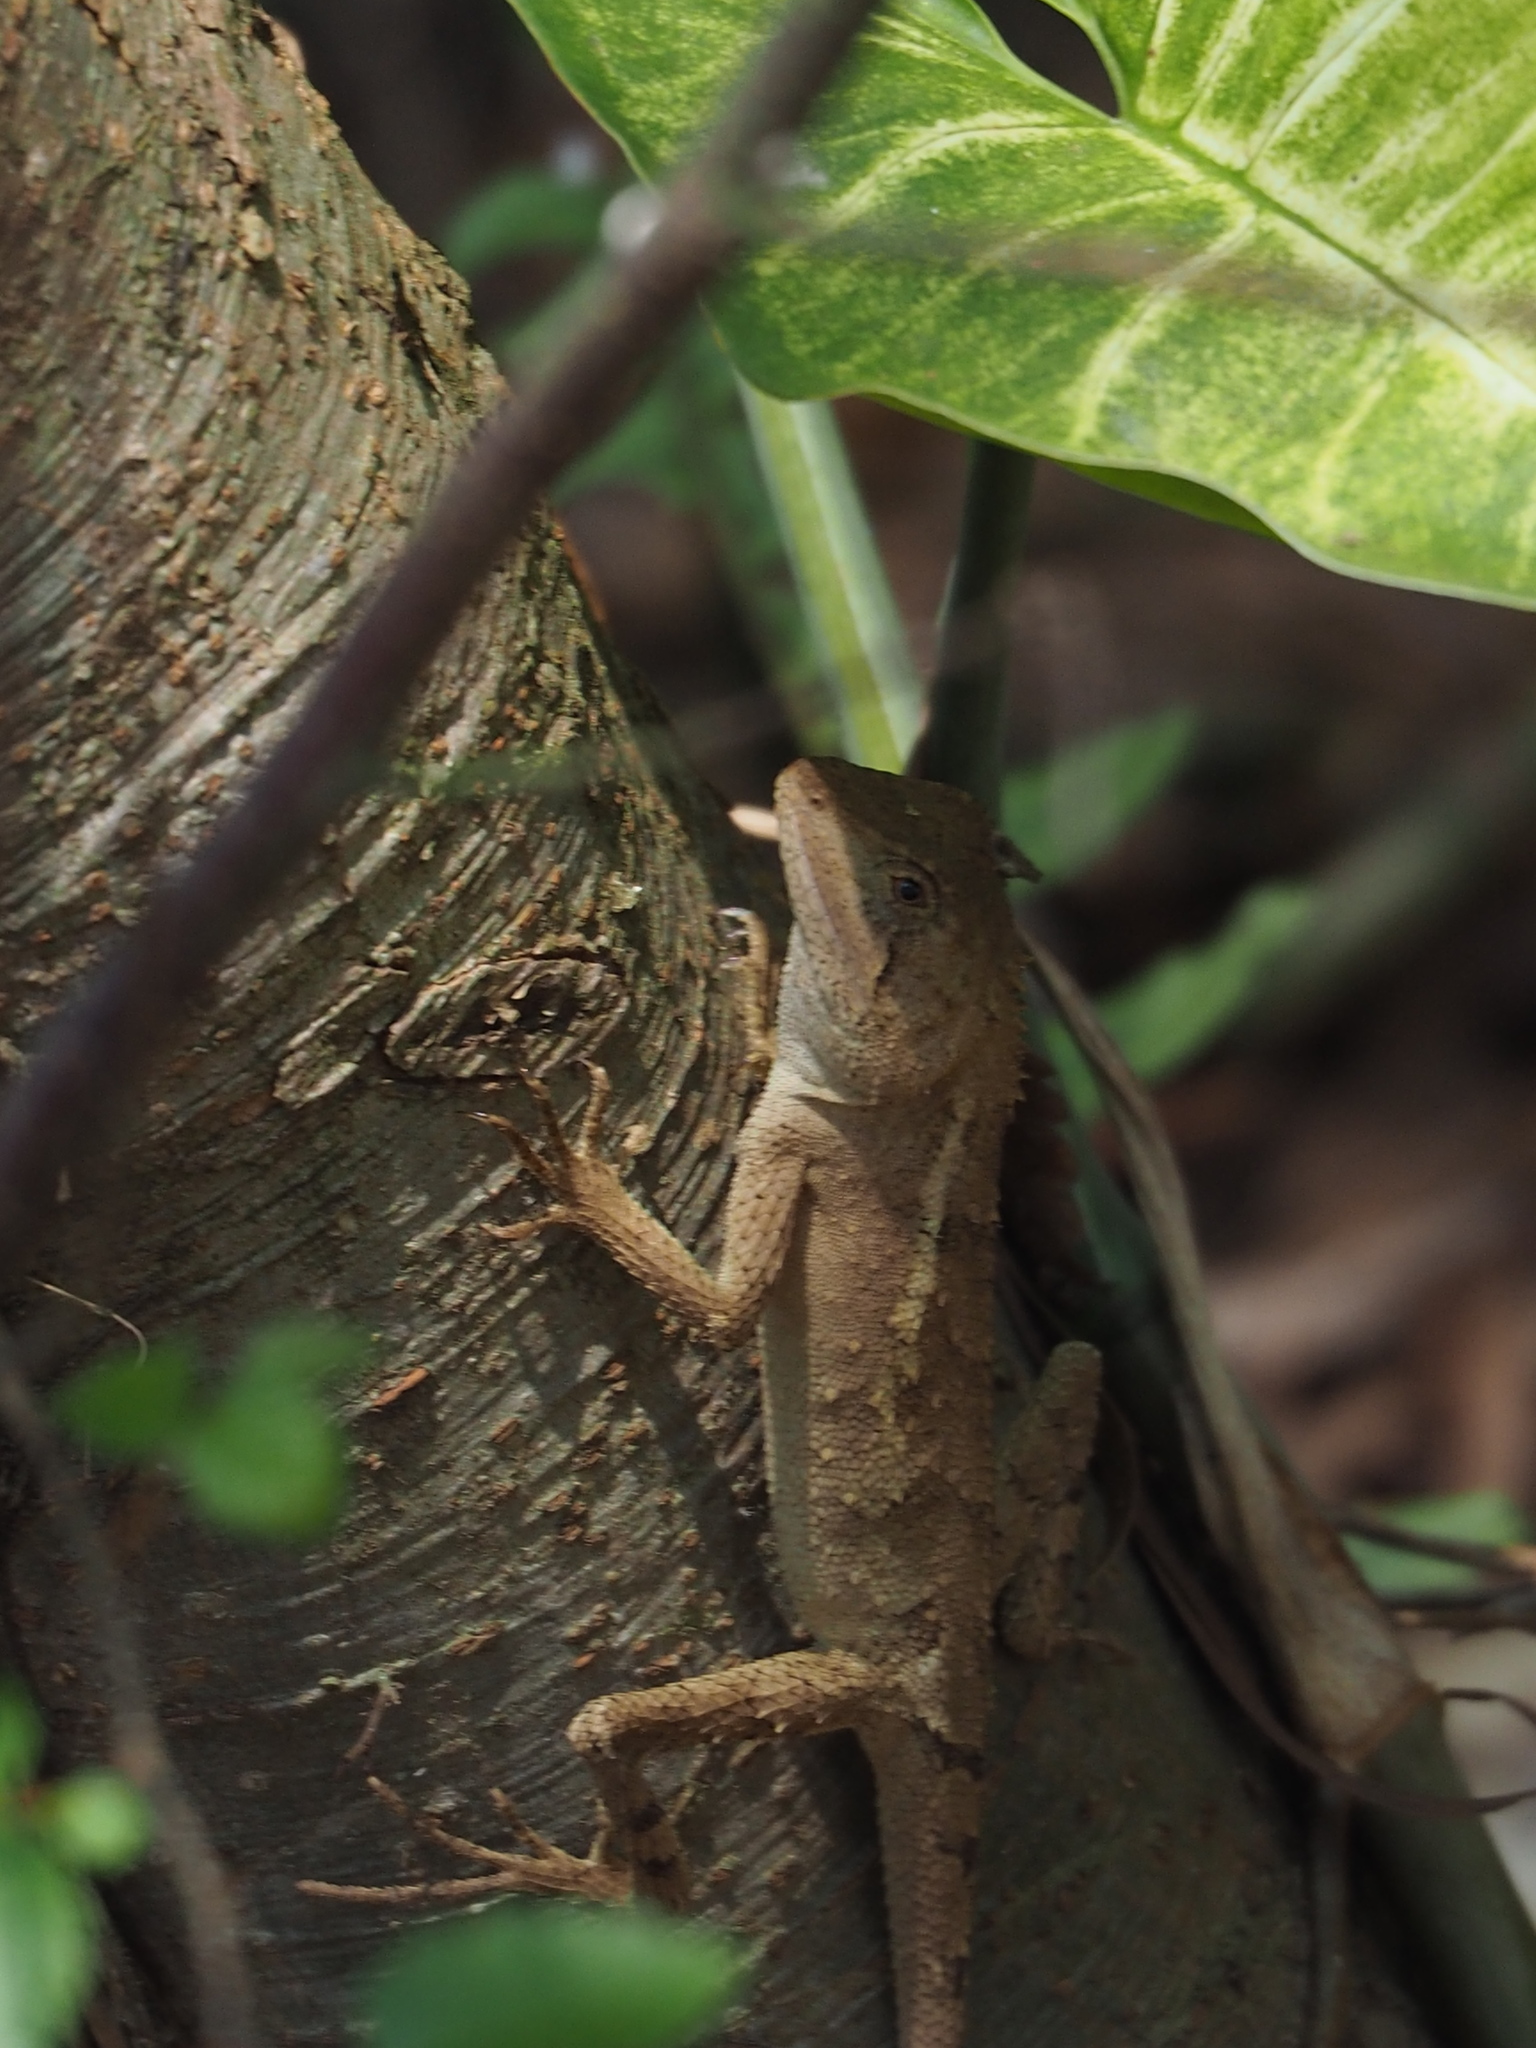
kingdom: Animalia
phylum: Chordata
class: Squamata
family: Agamidae
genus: Diploderma
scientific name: Diploderma swinhonis
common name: Taiwan japalure
